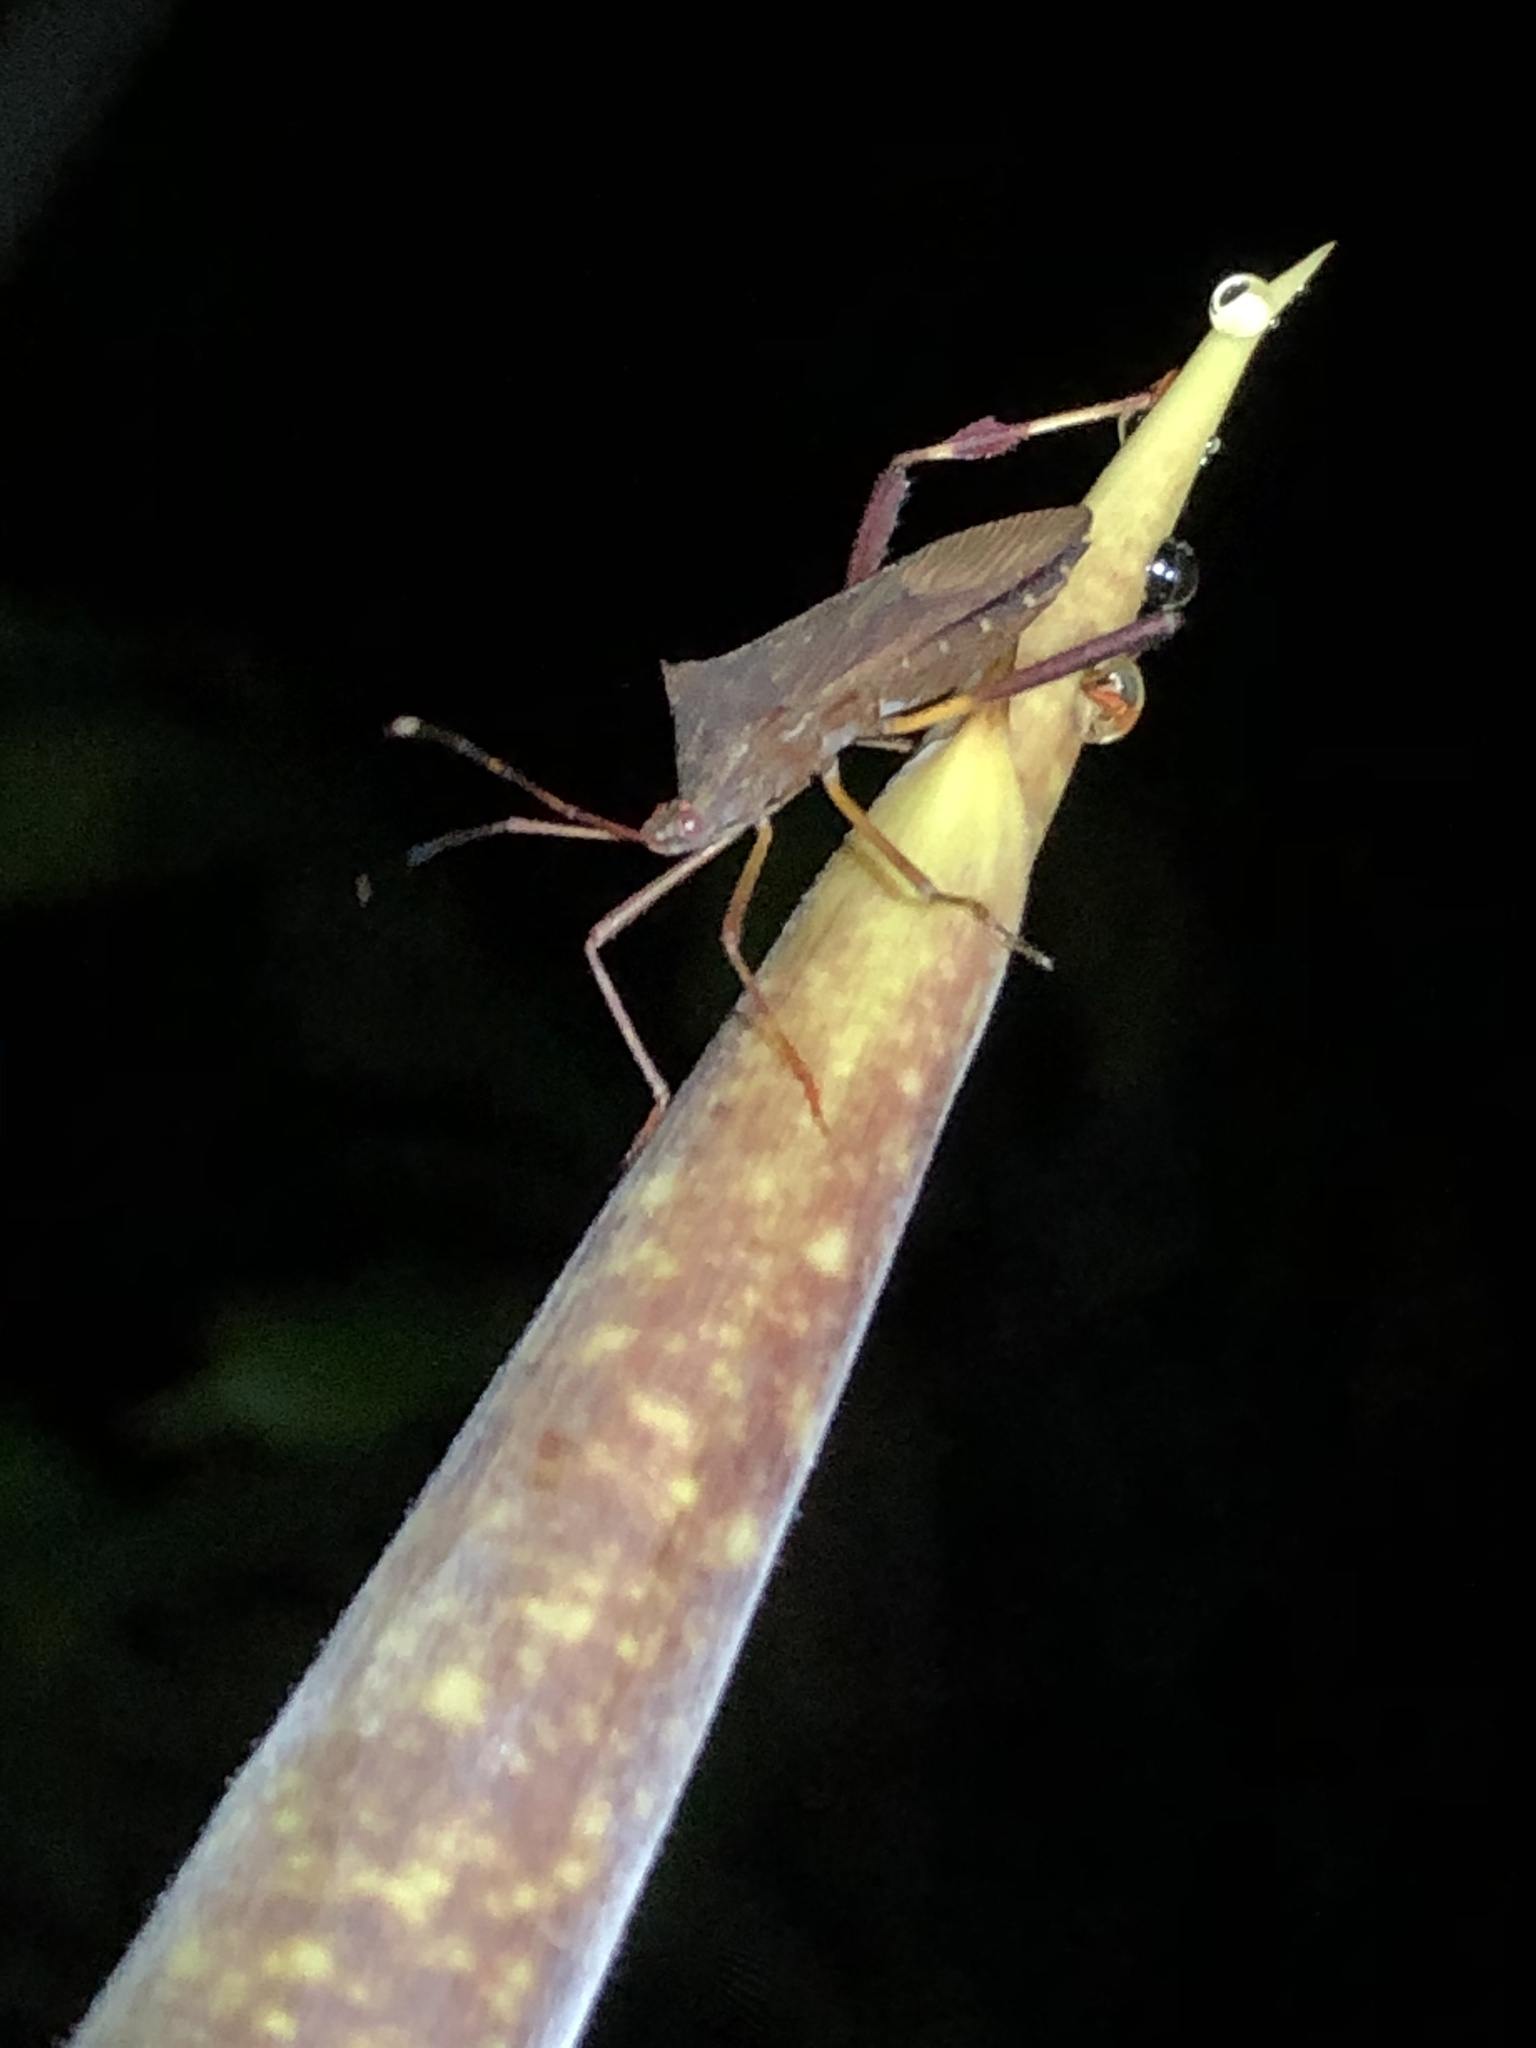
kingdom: Animalia
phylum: Arthropoda
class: Insecta
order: Hemiptera
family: Coreidae
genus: Zygometapodus
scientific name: Zygometapodus castaneus
